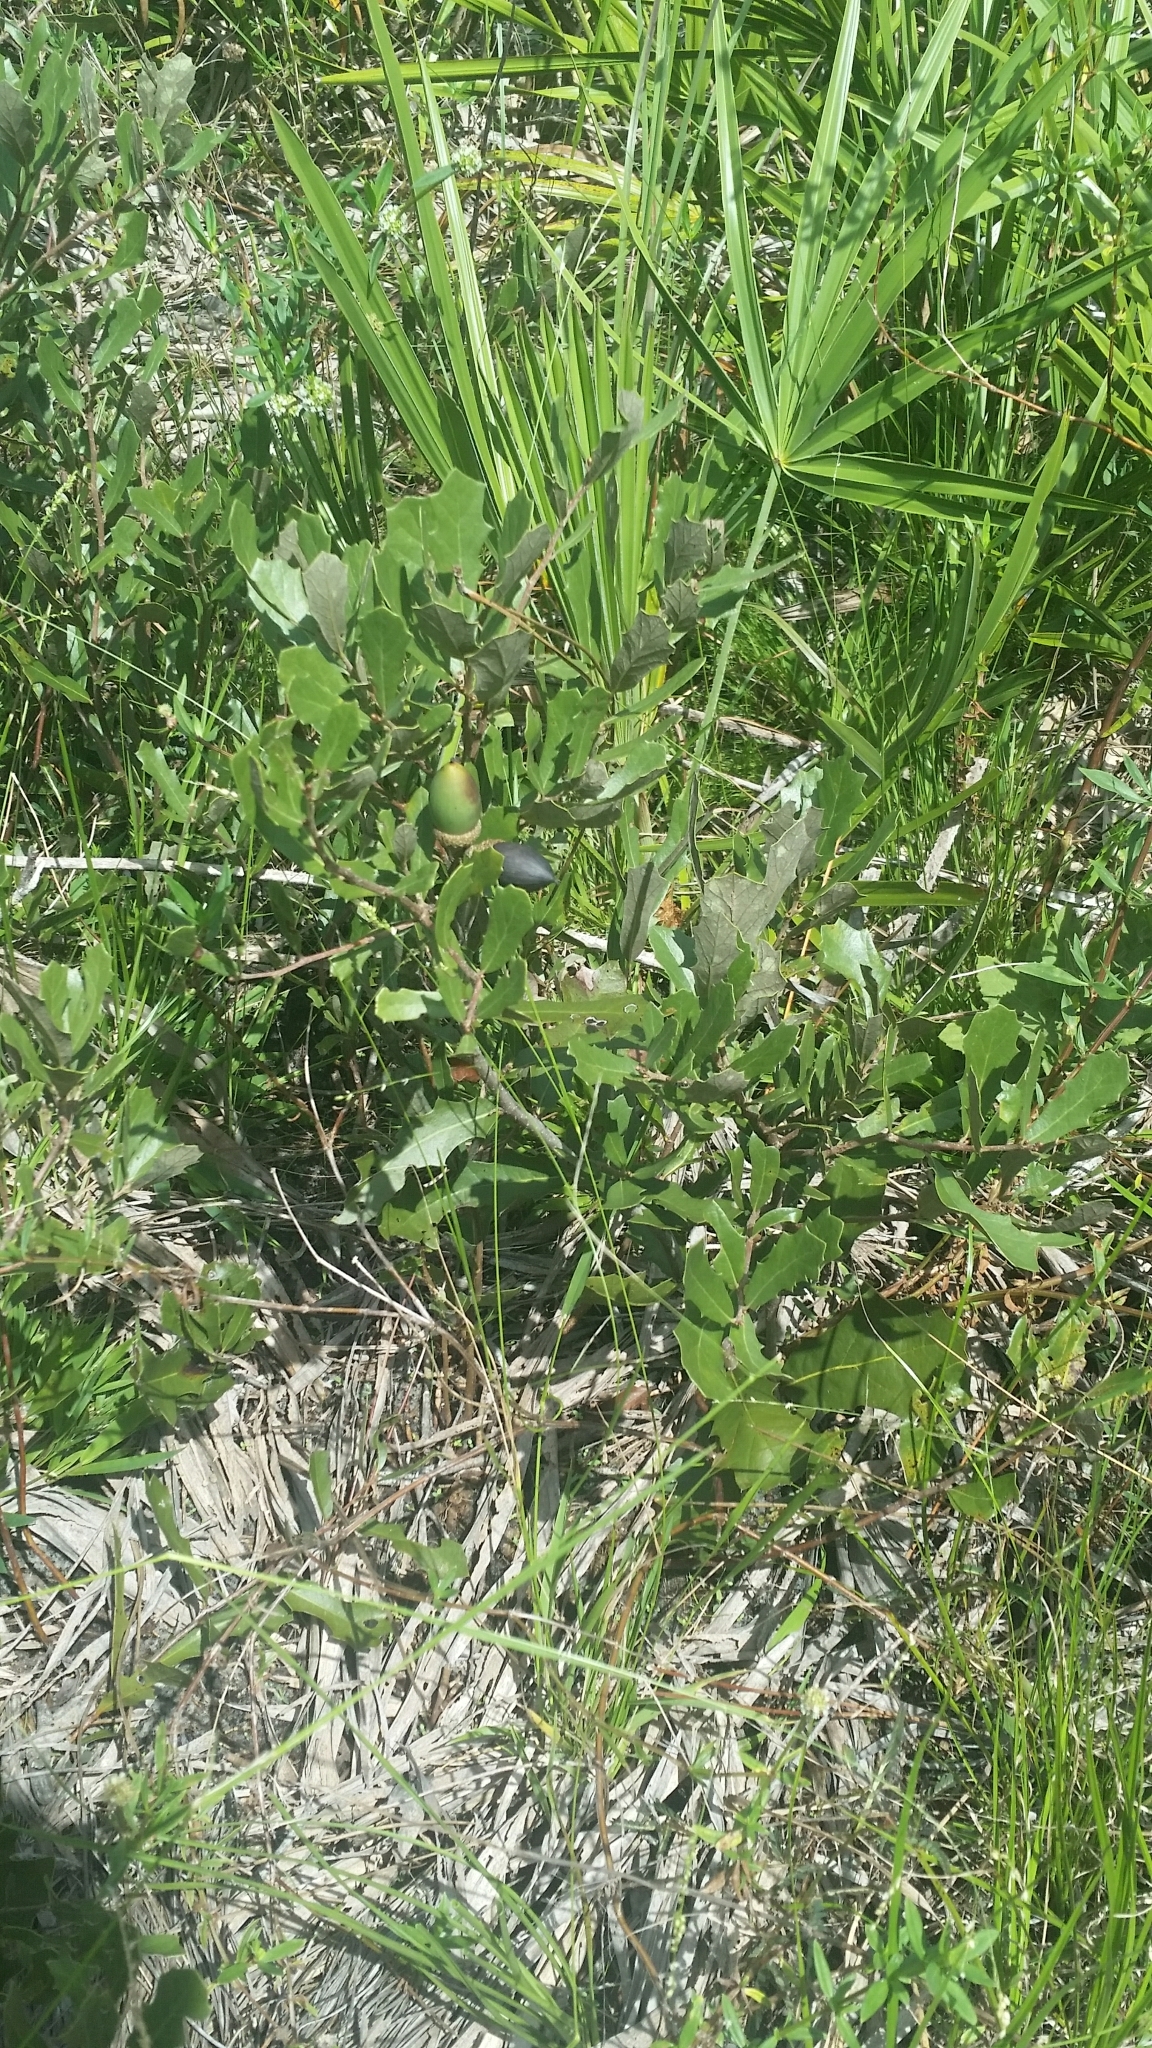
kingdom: Plantae
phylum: Tracheophyta
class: Magnoliopsida
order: Fagales
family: Fagaceae
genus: Quercus
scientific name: Quercus minima
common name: Dwarf live oak
